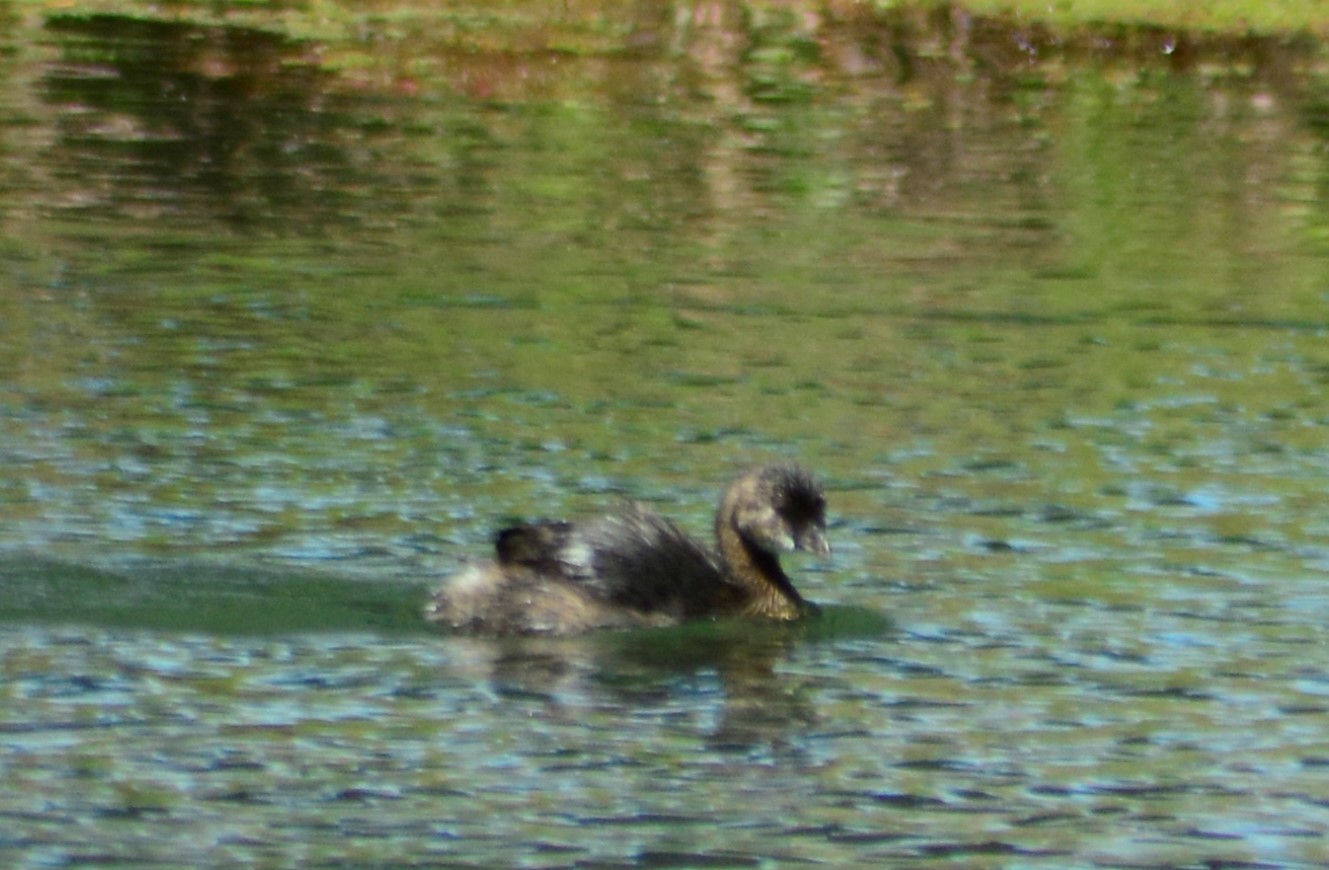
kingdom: Animalia
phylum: Chordata
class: Aves
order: Podicipediformes
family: Podicipedidae
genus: Podilymbus
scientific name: Podilymbus podiceps
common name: Pied-billed grebe
